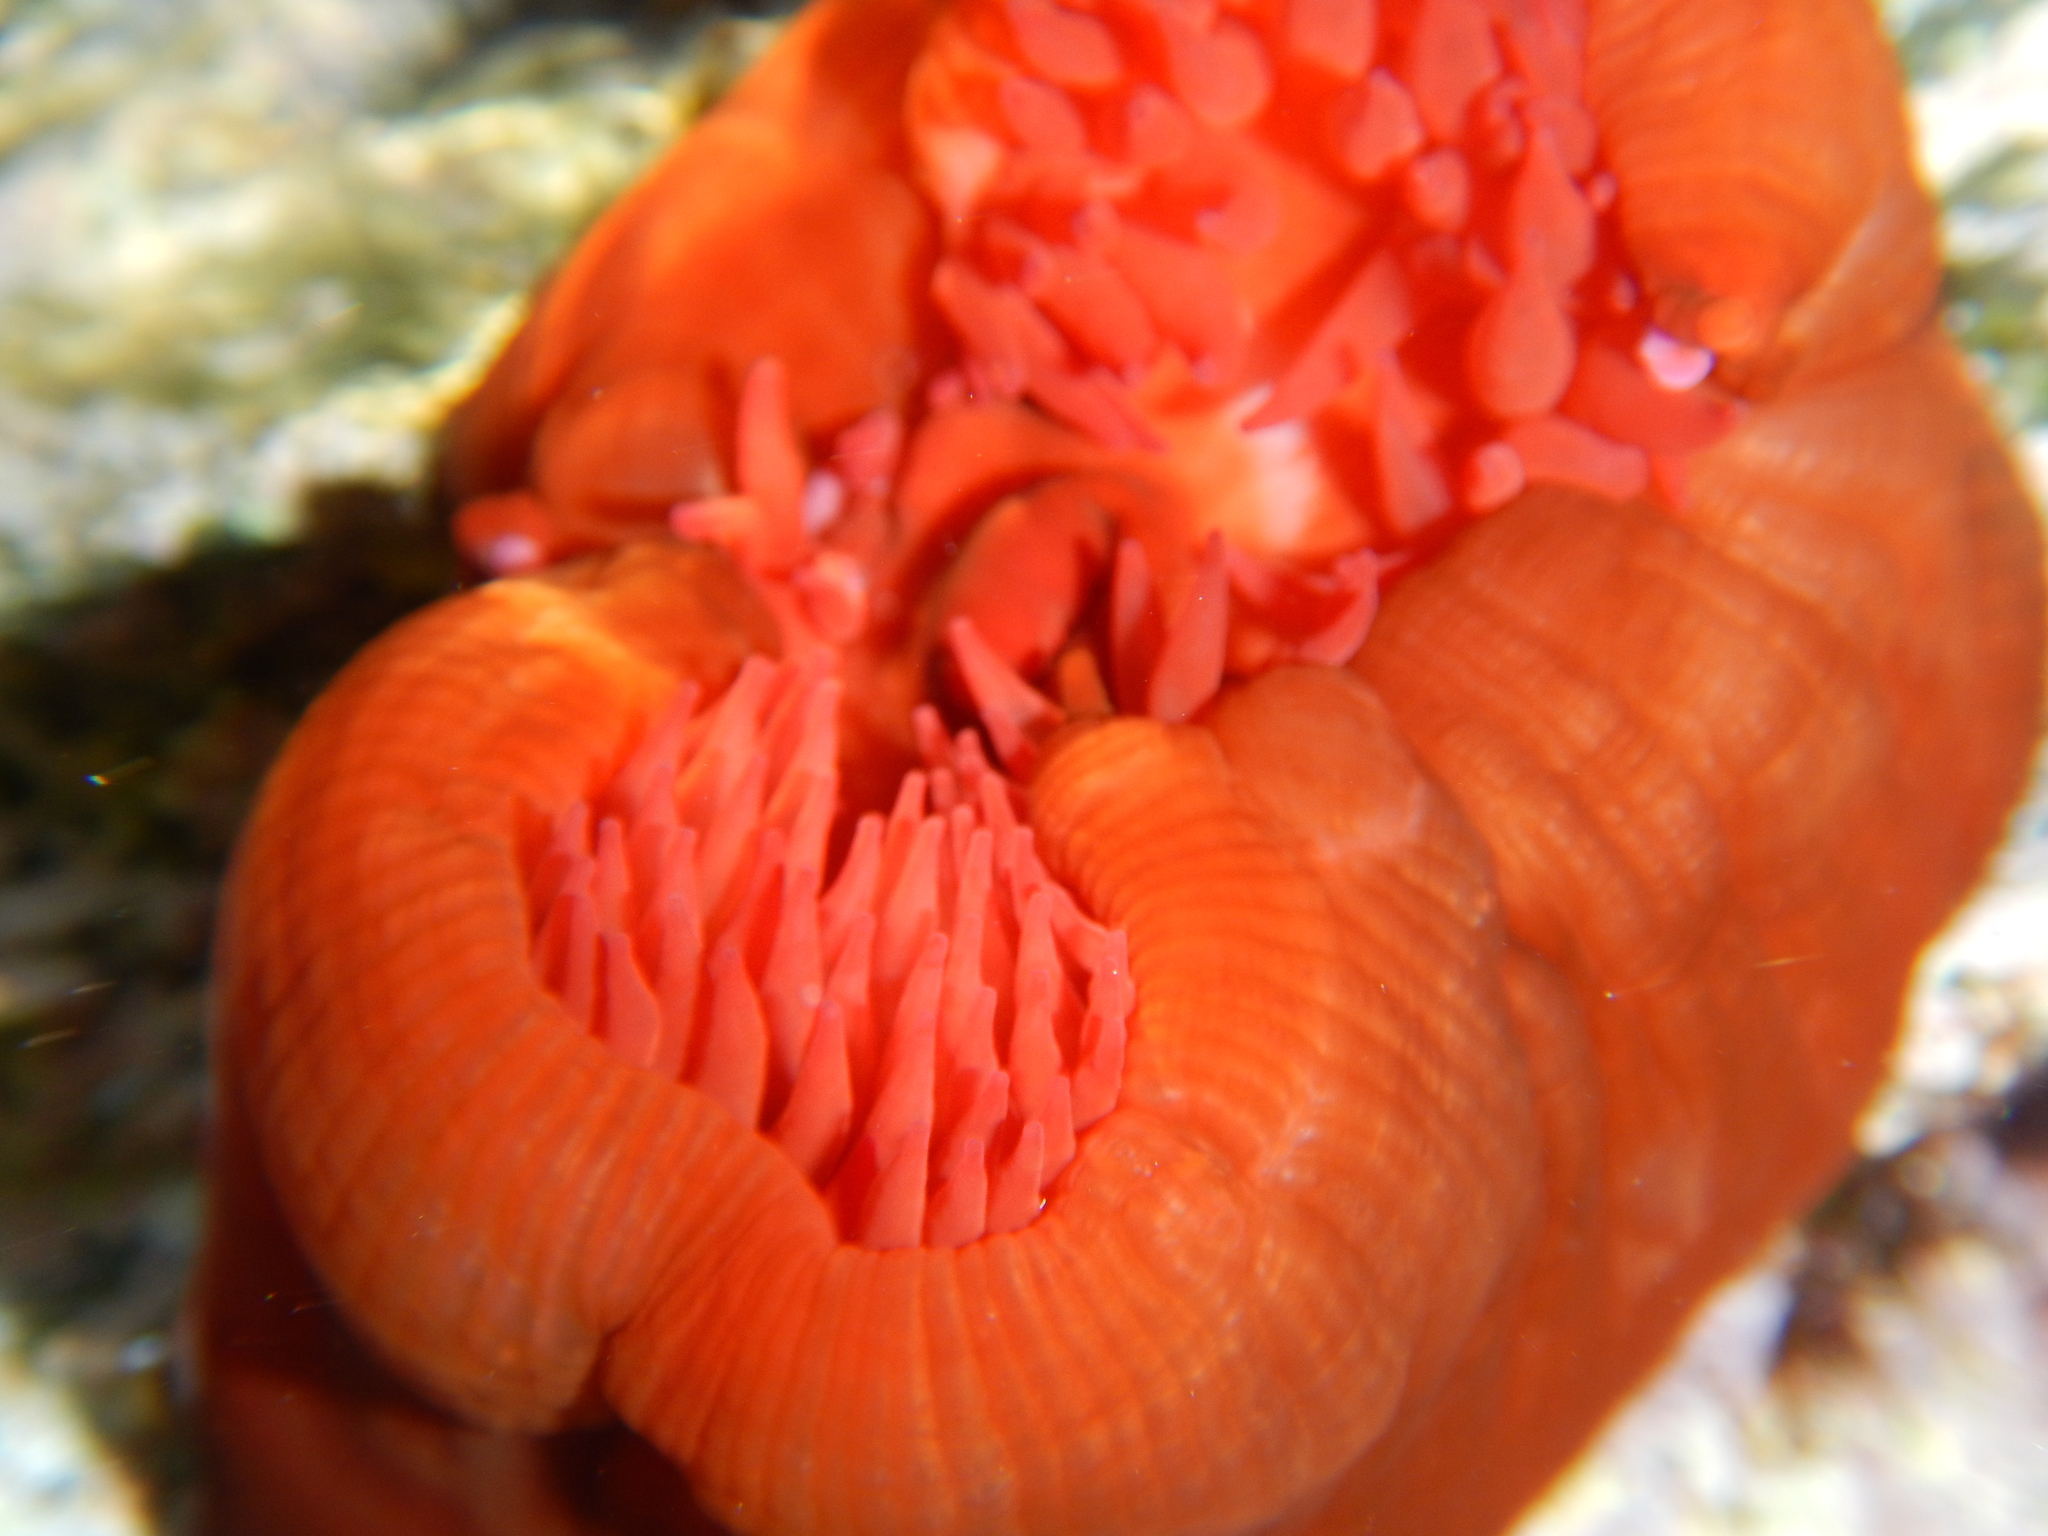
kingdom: Animalia
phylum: Cnidaria
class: Anthozoa
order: Actiniaria
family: Actiniidae
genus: Actinia
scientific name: Actinia mediterranea
